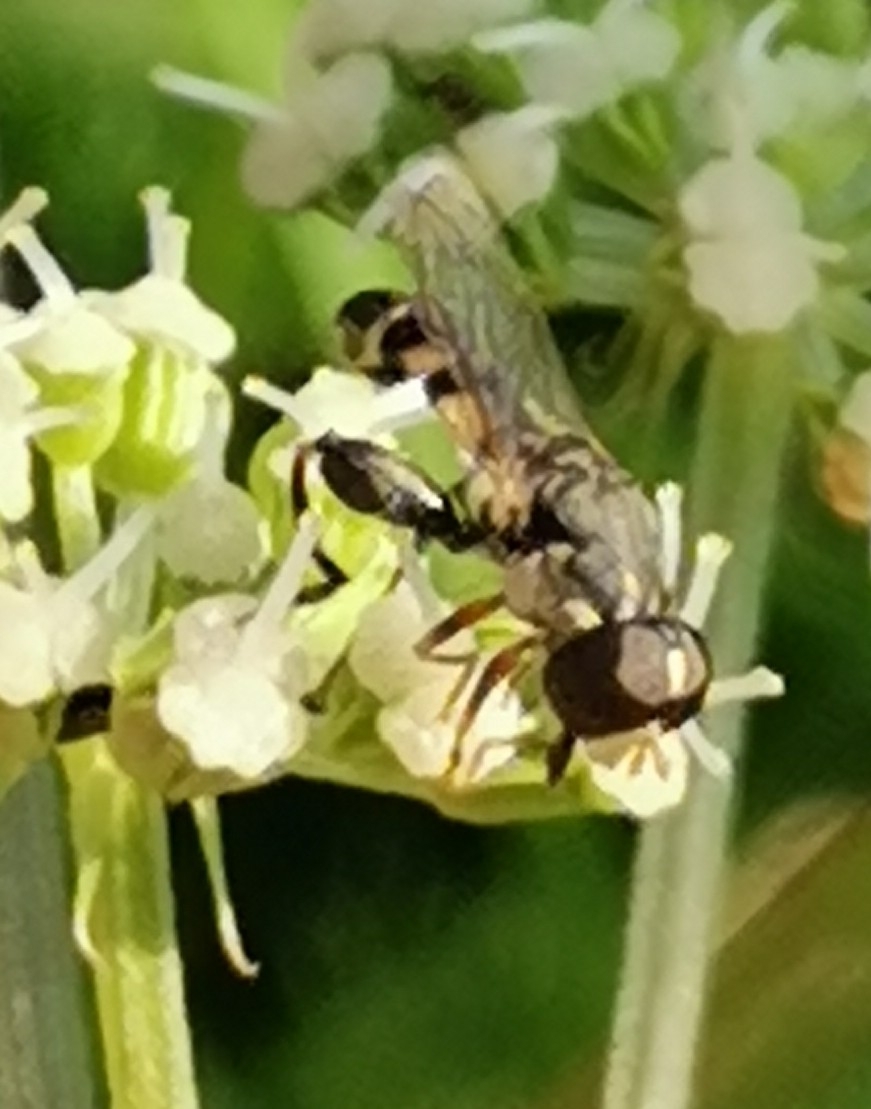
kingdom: Animalia
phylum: Arthropoda
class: Insecta
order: Diptera
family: Syrphidae
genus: Syritta
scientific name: Syritta pipiens
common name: Hover fly
